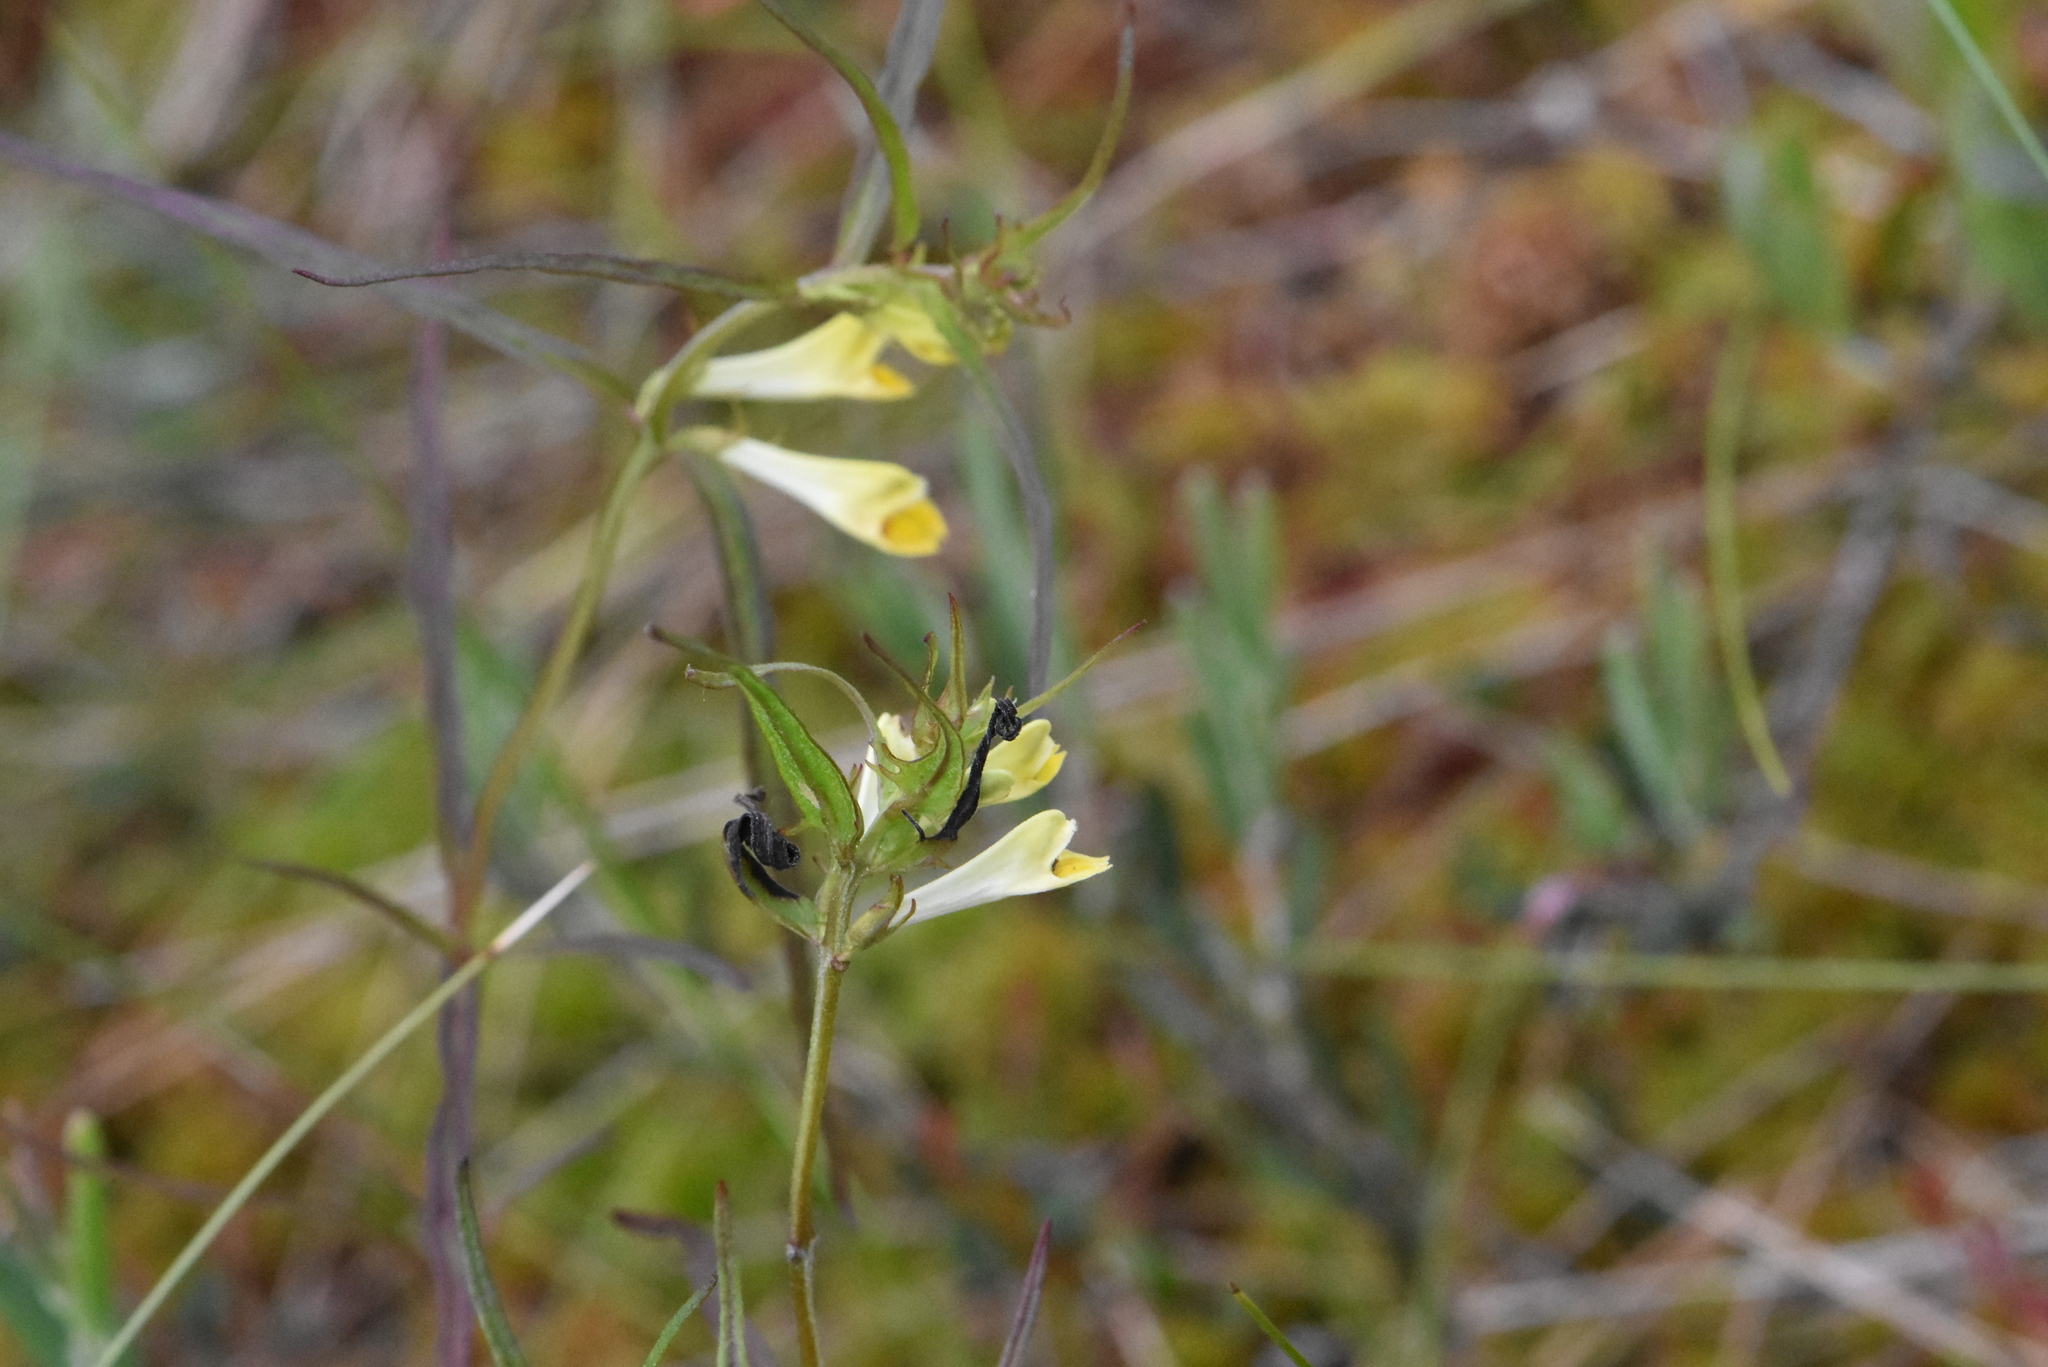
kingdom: Plantae
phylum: Tracheophyta
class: Magnoliopsida
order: Lamiales
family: Orobanchaceae
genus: Melampyrum
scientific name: Melampyrum pratense
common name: Common cow-wheat
